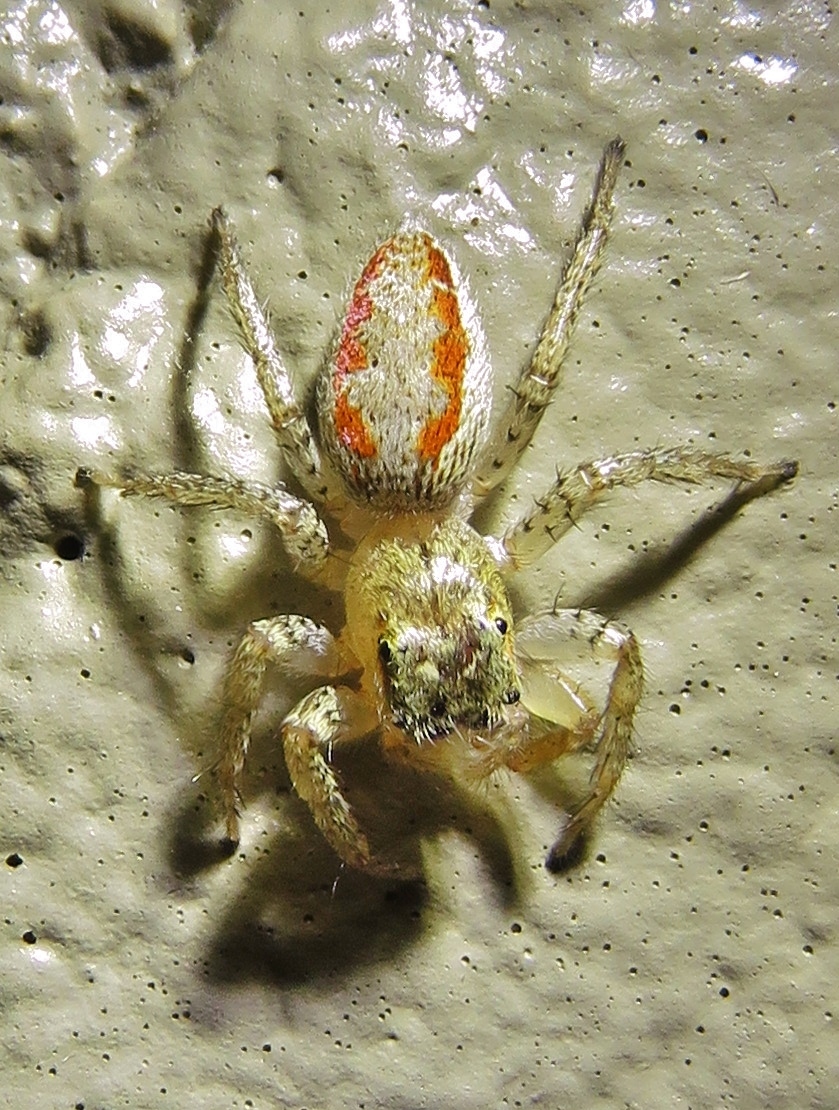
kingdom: Animalia
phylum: Arthropoda
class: Arachnida
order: Araneae
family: Salticidae
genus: Maevia
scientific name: Maevia inclemens
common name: Dimorphic jumper
